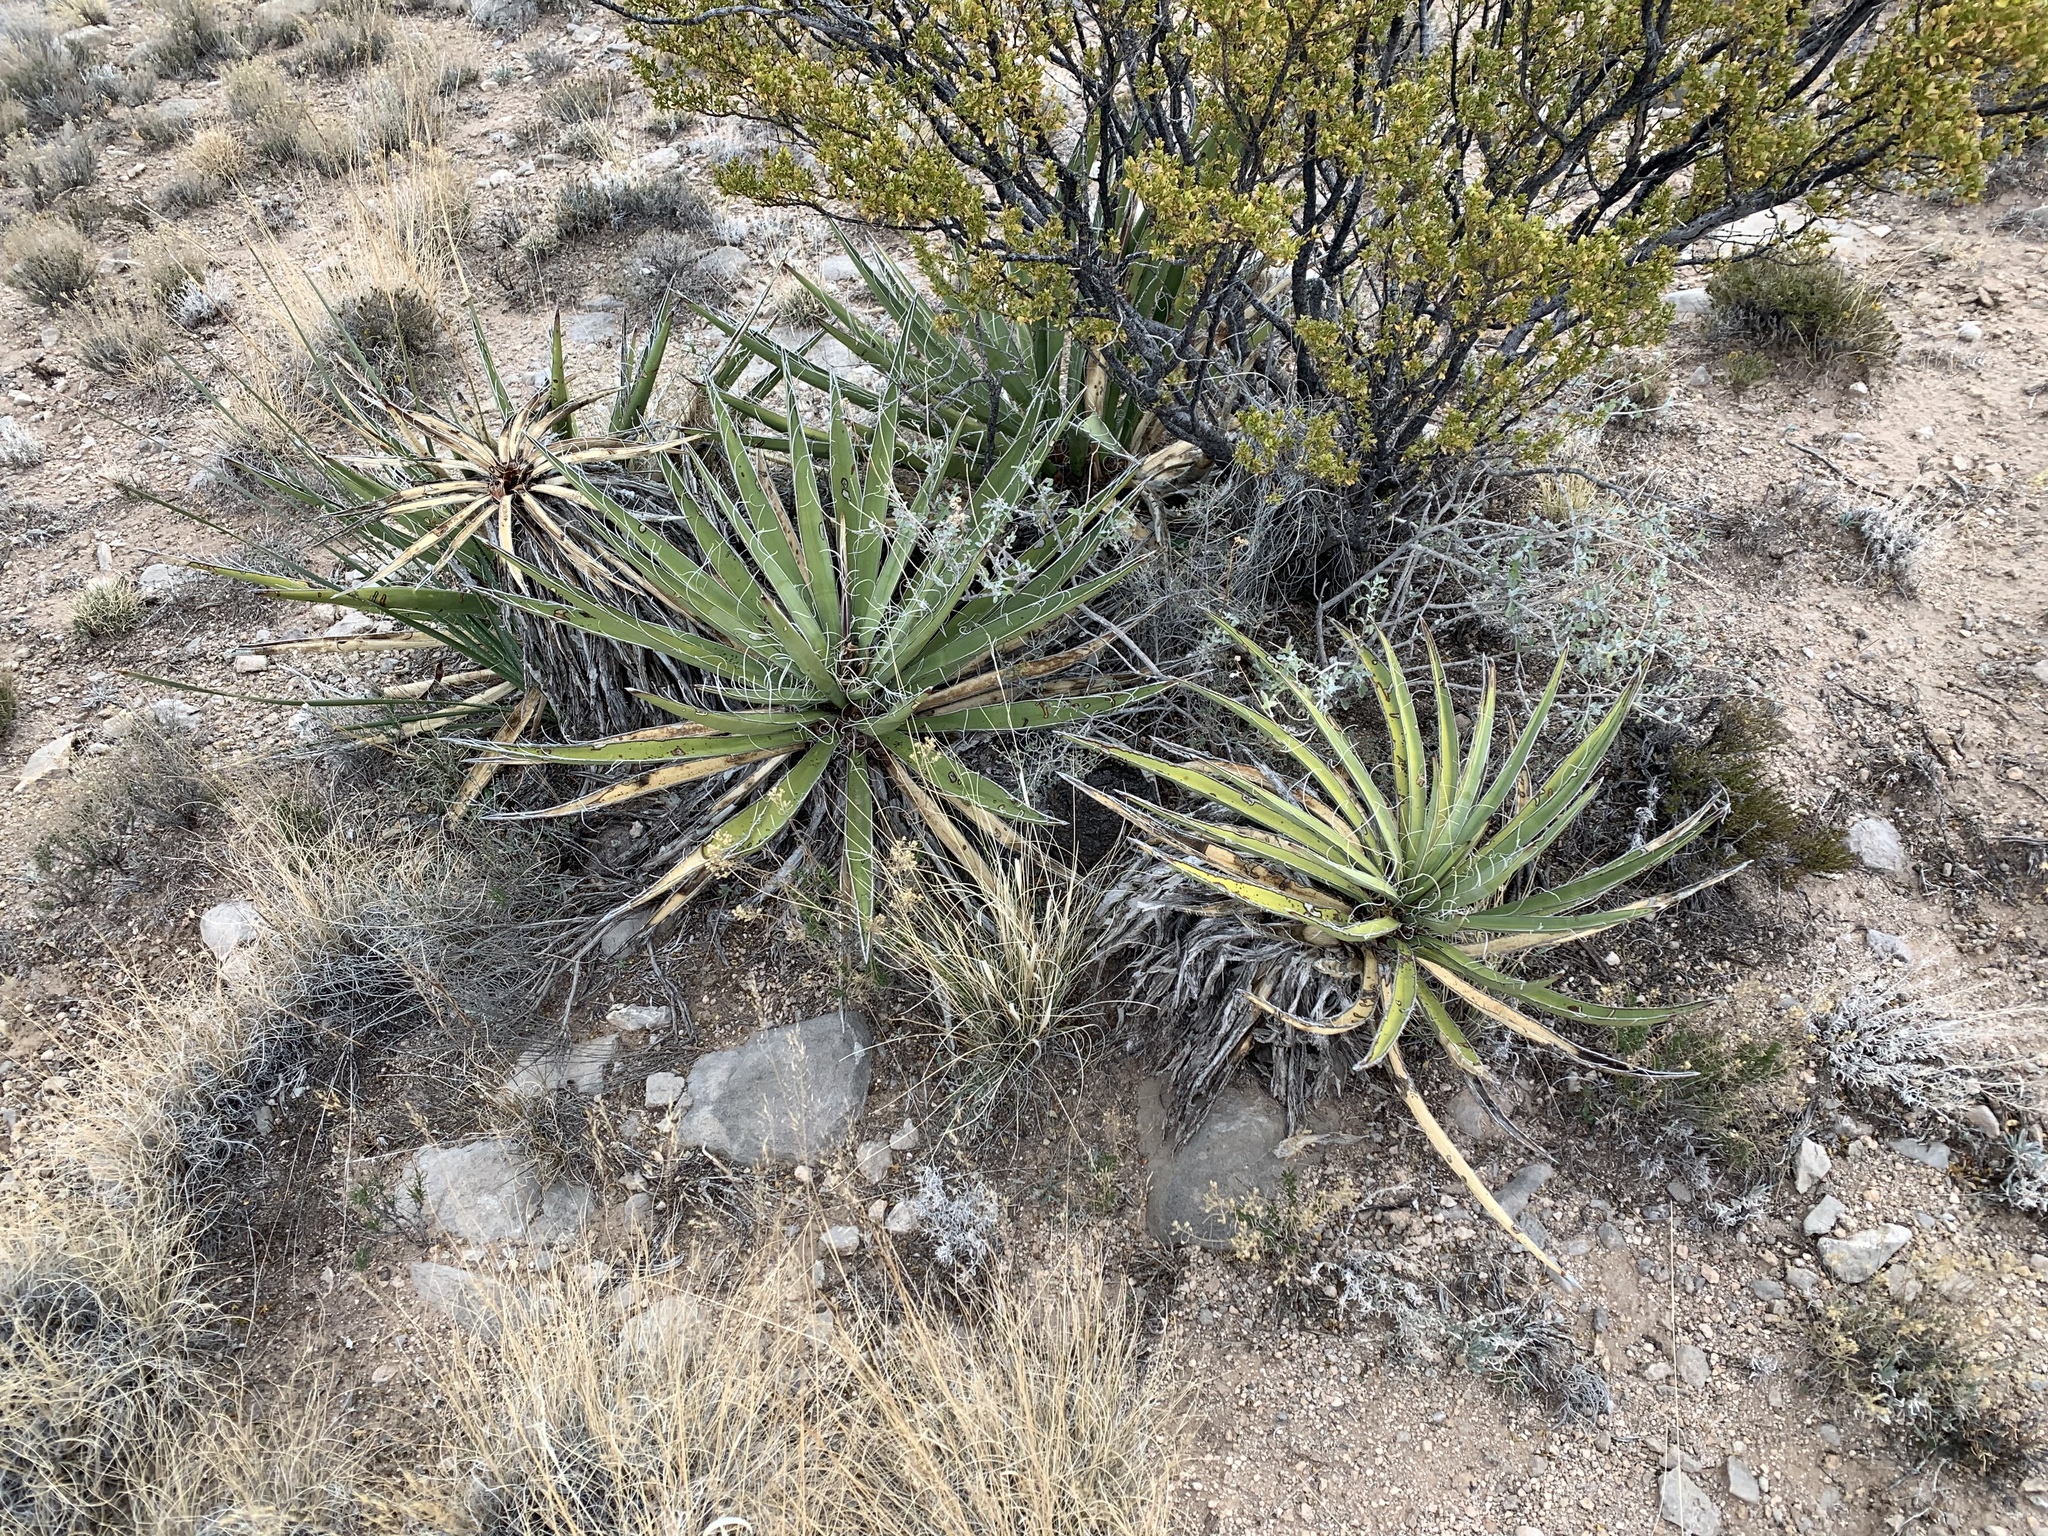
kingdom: Plantae
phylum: Tracheophyta
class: Liliopsida
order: Asparagales
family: Asparagaceae
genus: Yucca
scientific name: Yucca baccata
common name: Banana yucca
